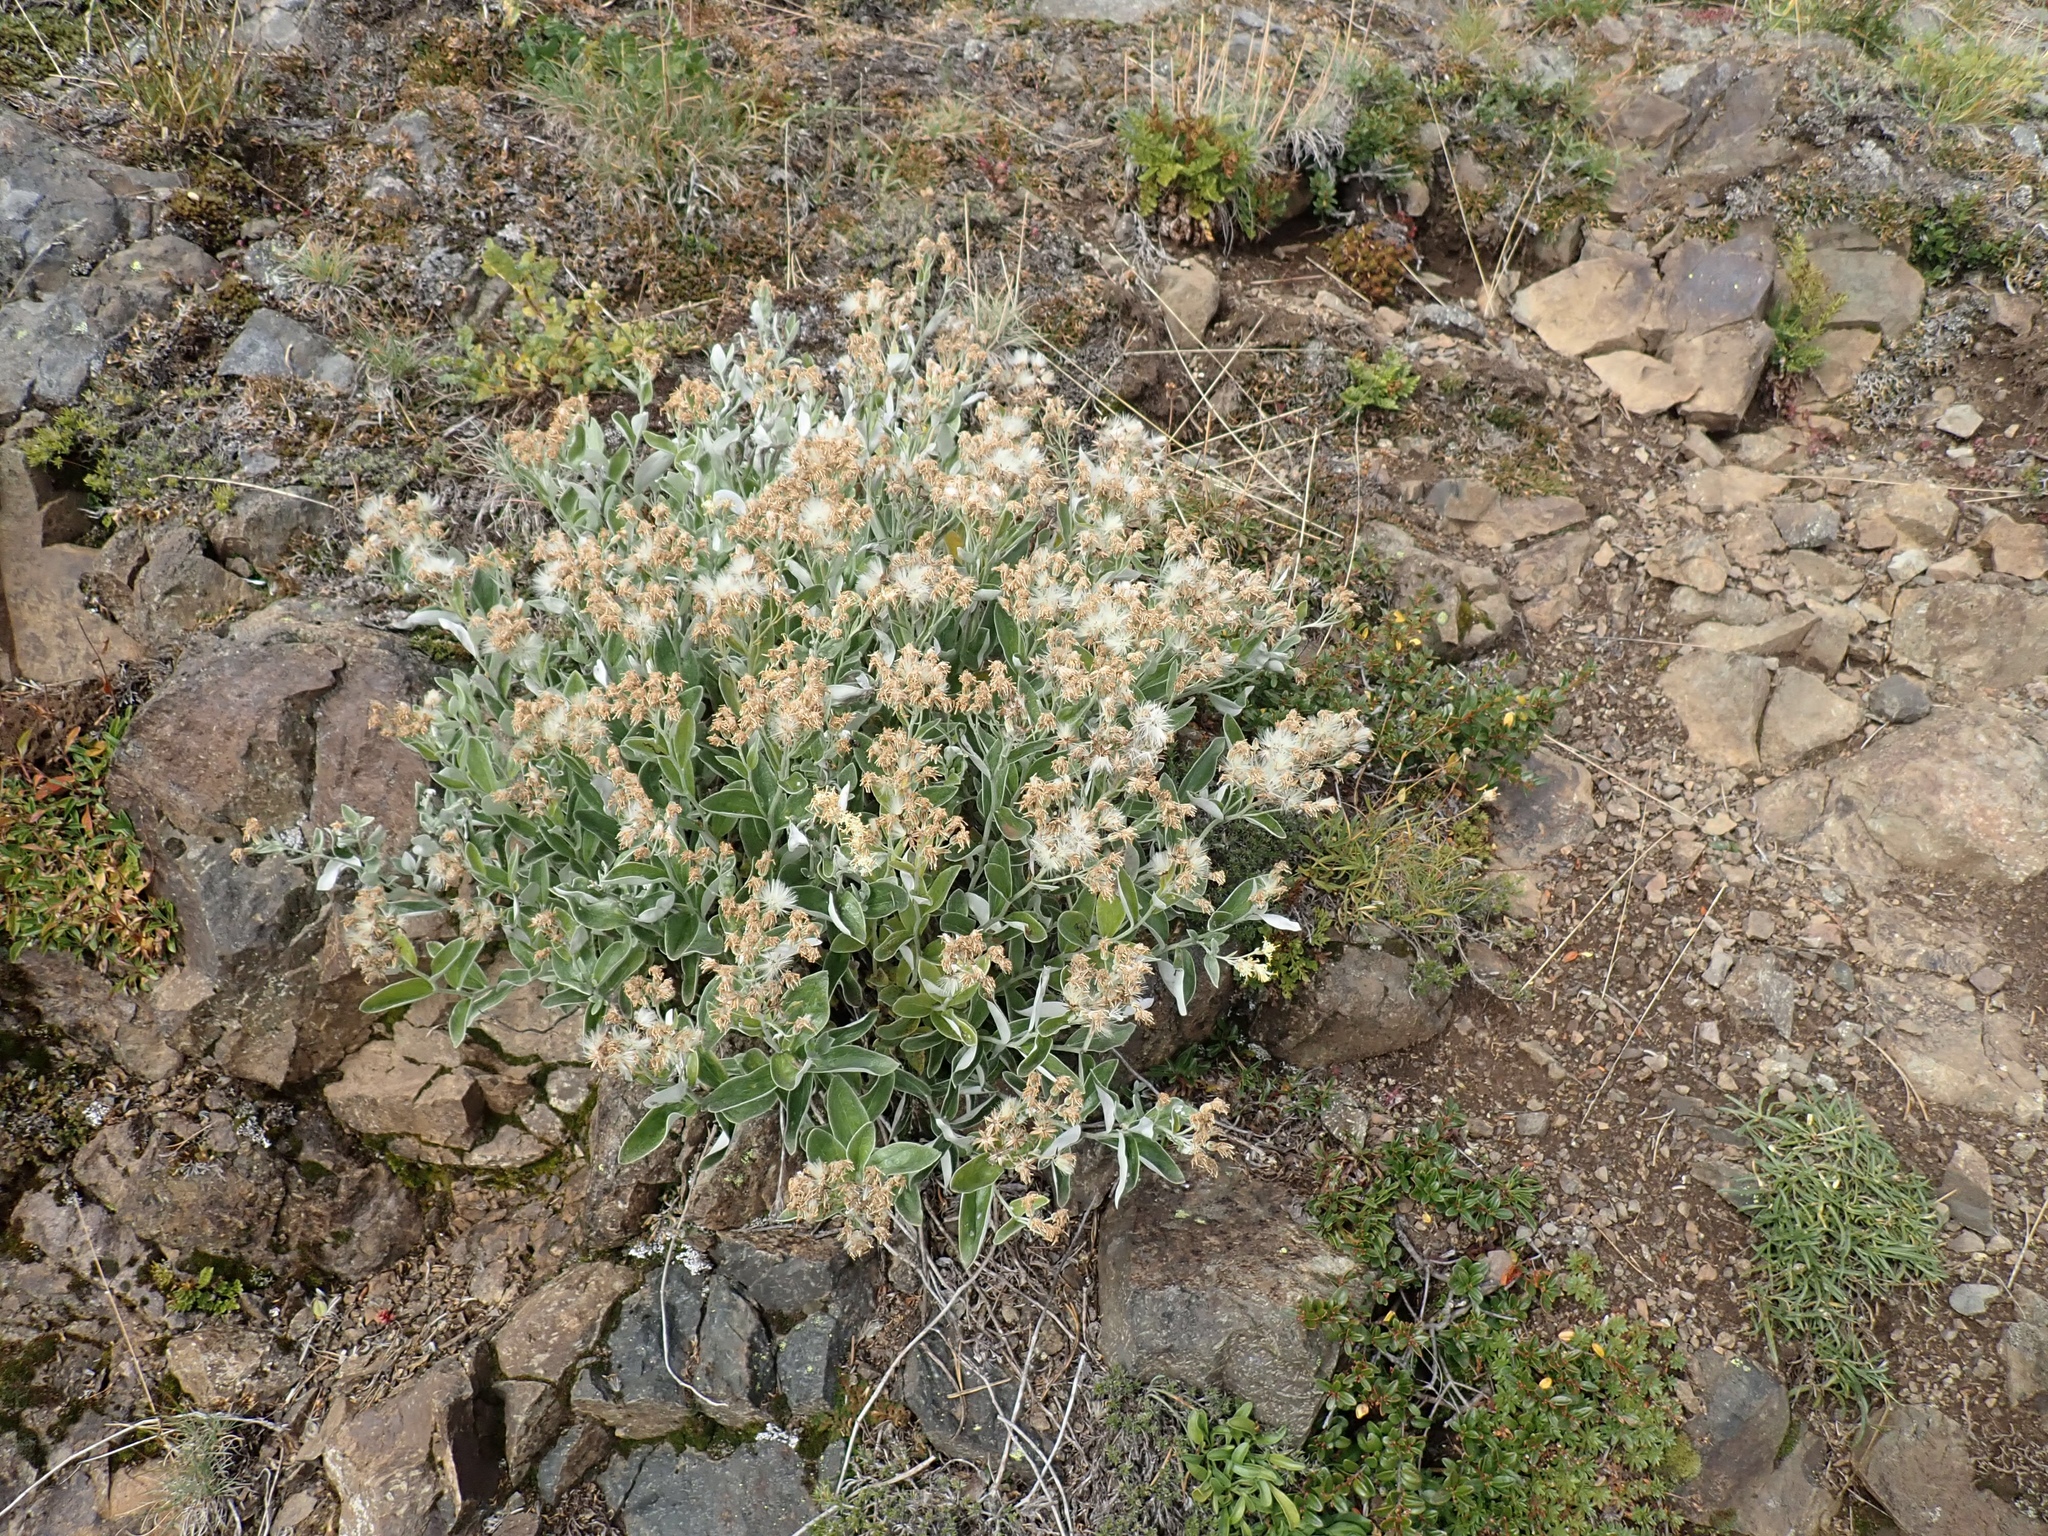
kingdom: Plantae
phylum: Tracheophyta
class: Magnoliopsida
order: Asterales
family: Asteraceae
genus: Luina
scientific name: Luina hypoleuca
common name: Little-leaved luina
